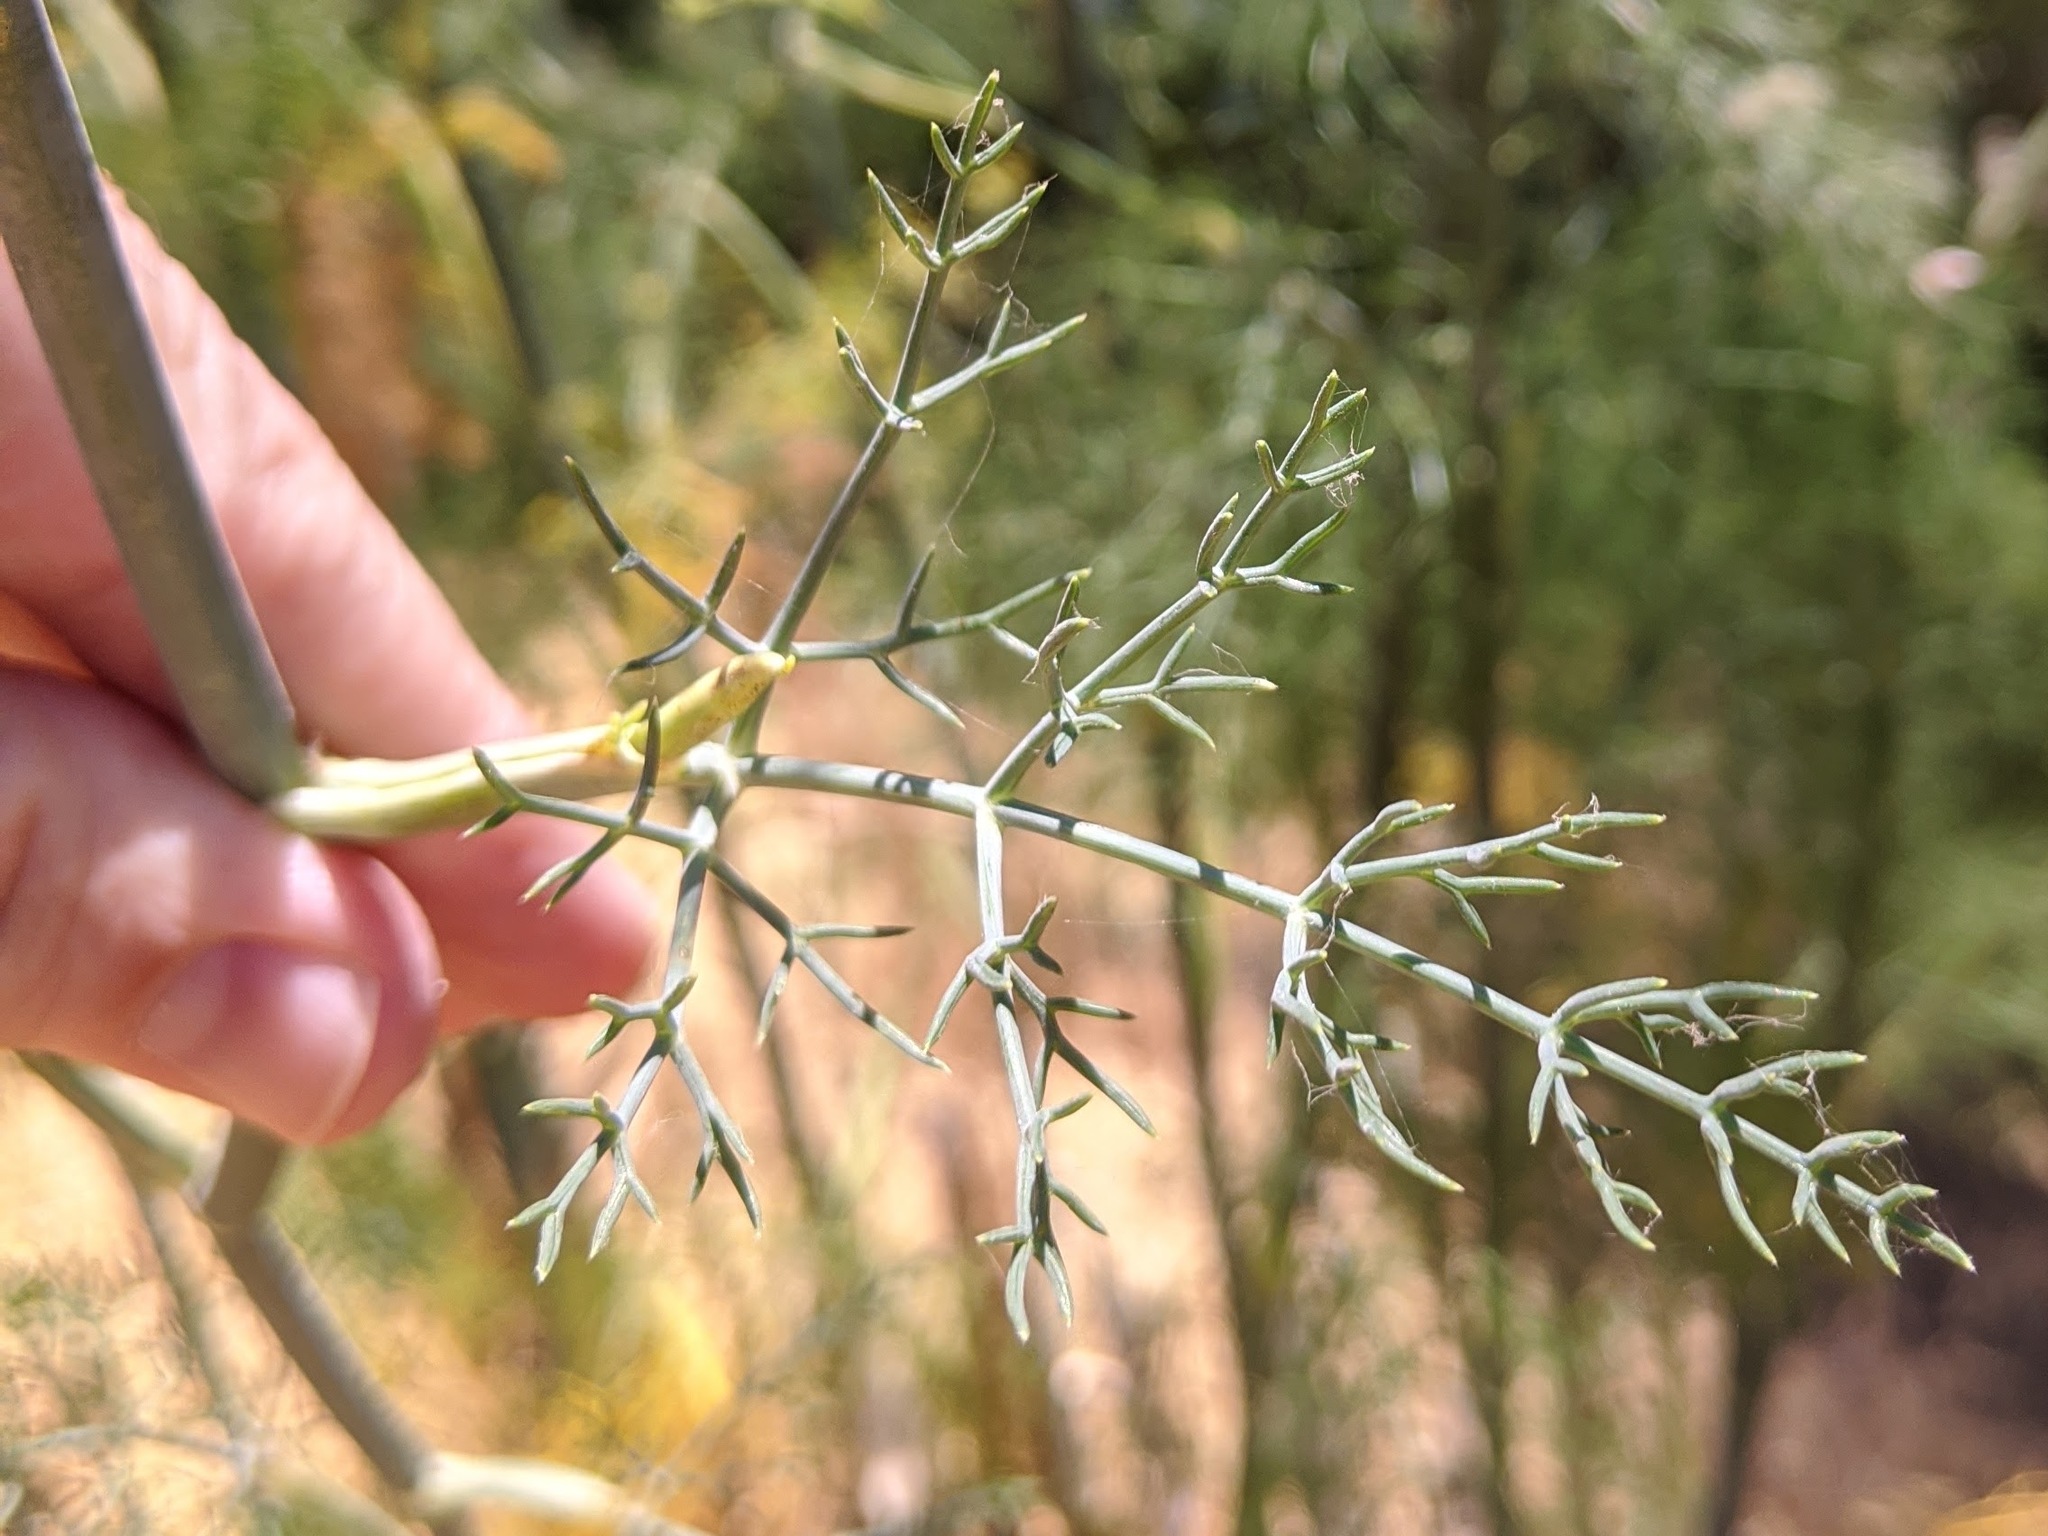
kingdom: Plantae
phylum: Tracheophyta
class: Magnoliopsida
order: Apiales
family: Apiaceae
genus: Foeniculum
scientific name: Foeniculum vulgare
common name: Fennel
